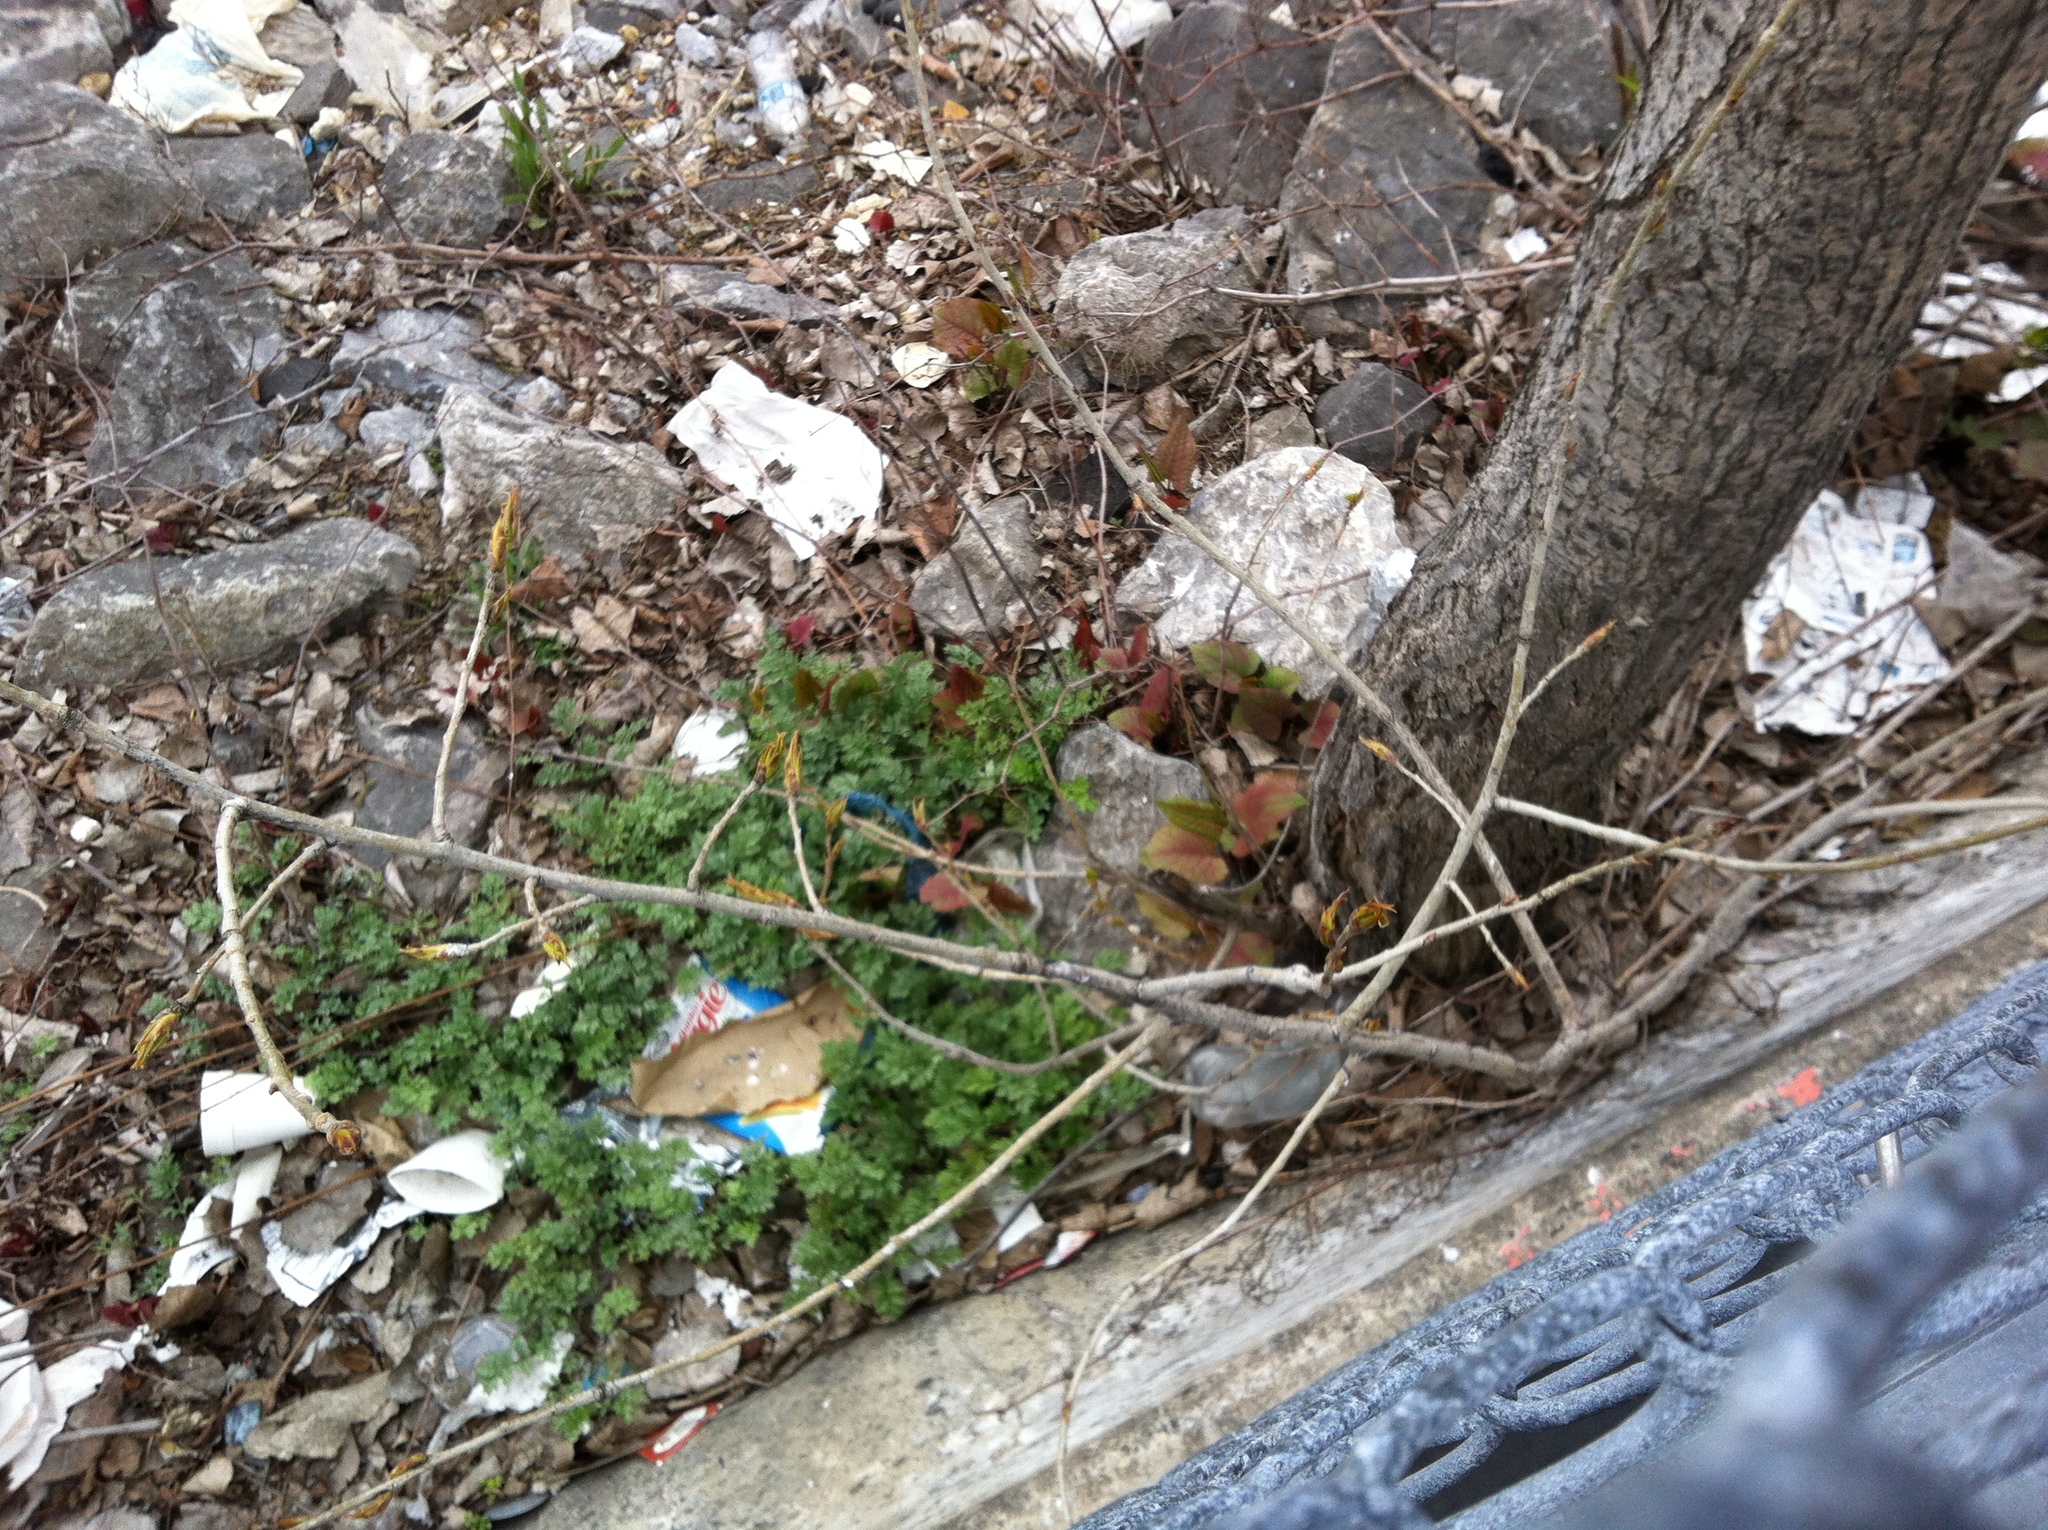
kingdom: Plantae
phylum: Tracheophyta
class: Magnoliopsida
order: Asterales
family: Asteraceae
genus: Artemisia
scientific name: Artemisia vulgaris
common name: Mugwort
